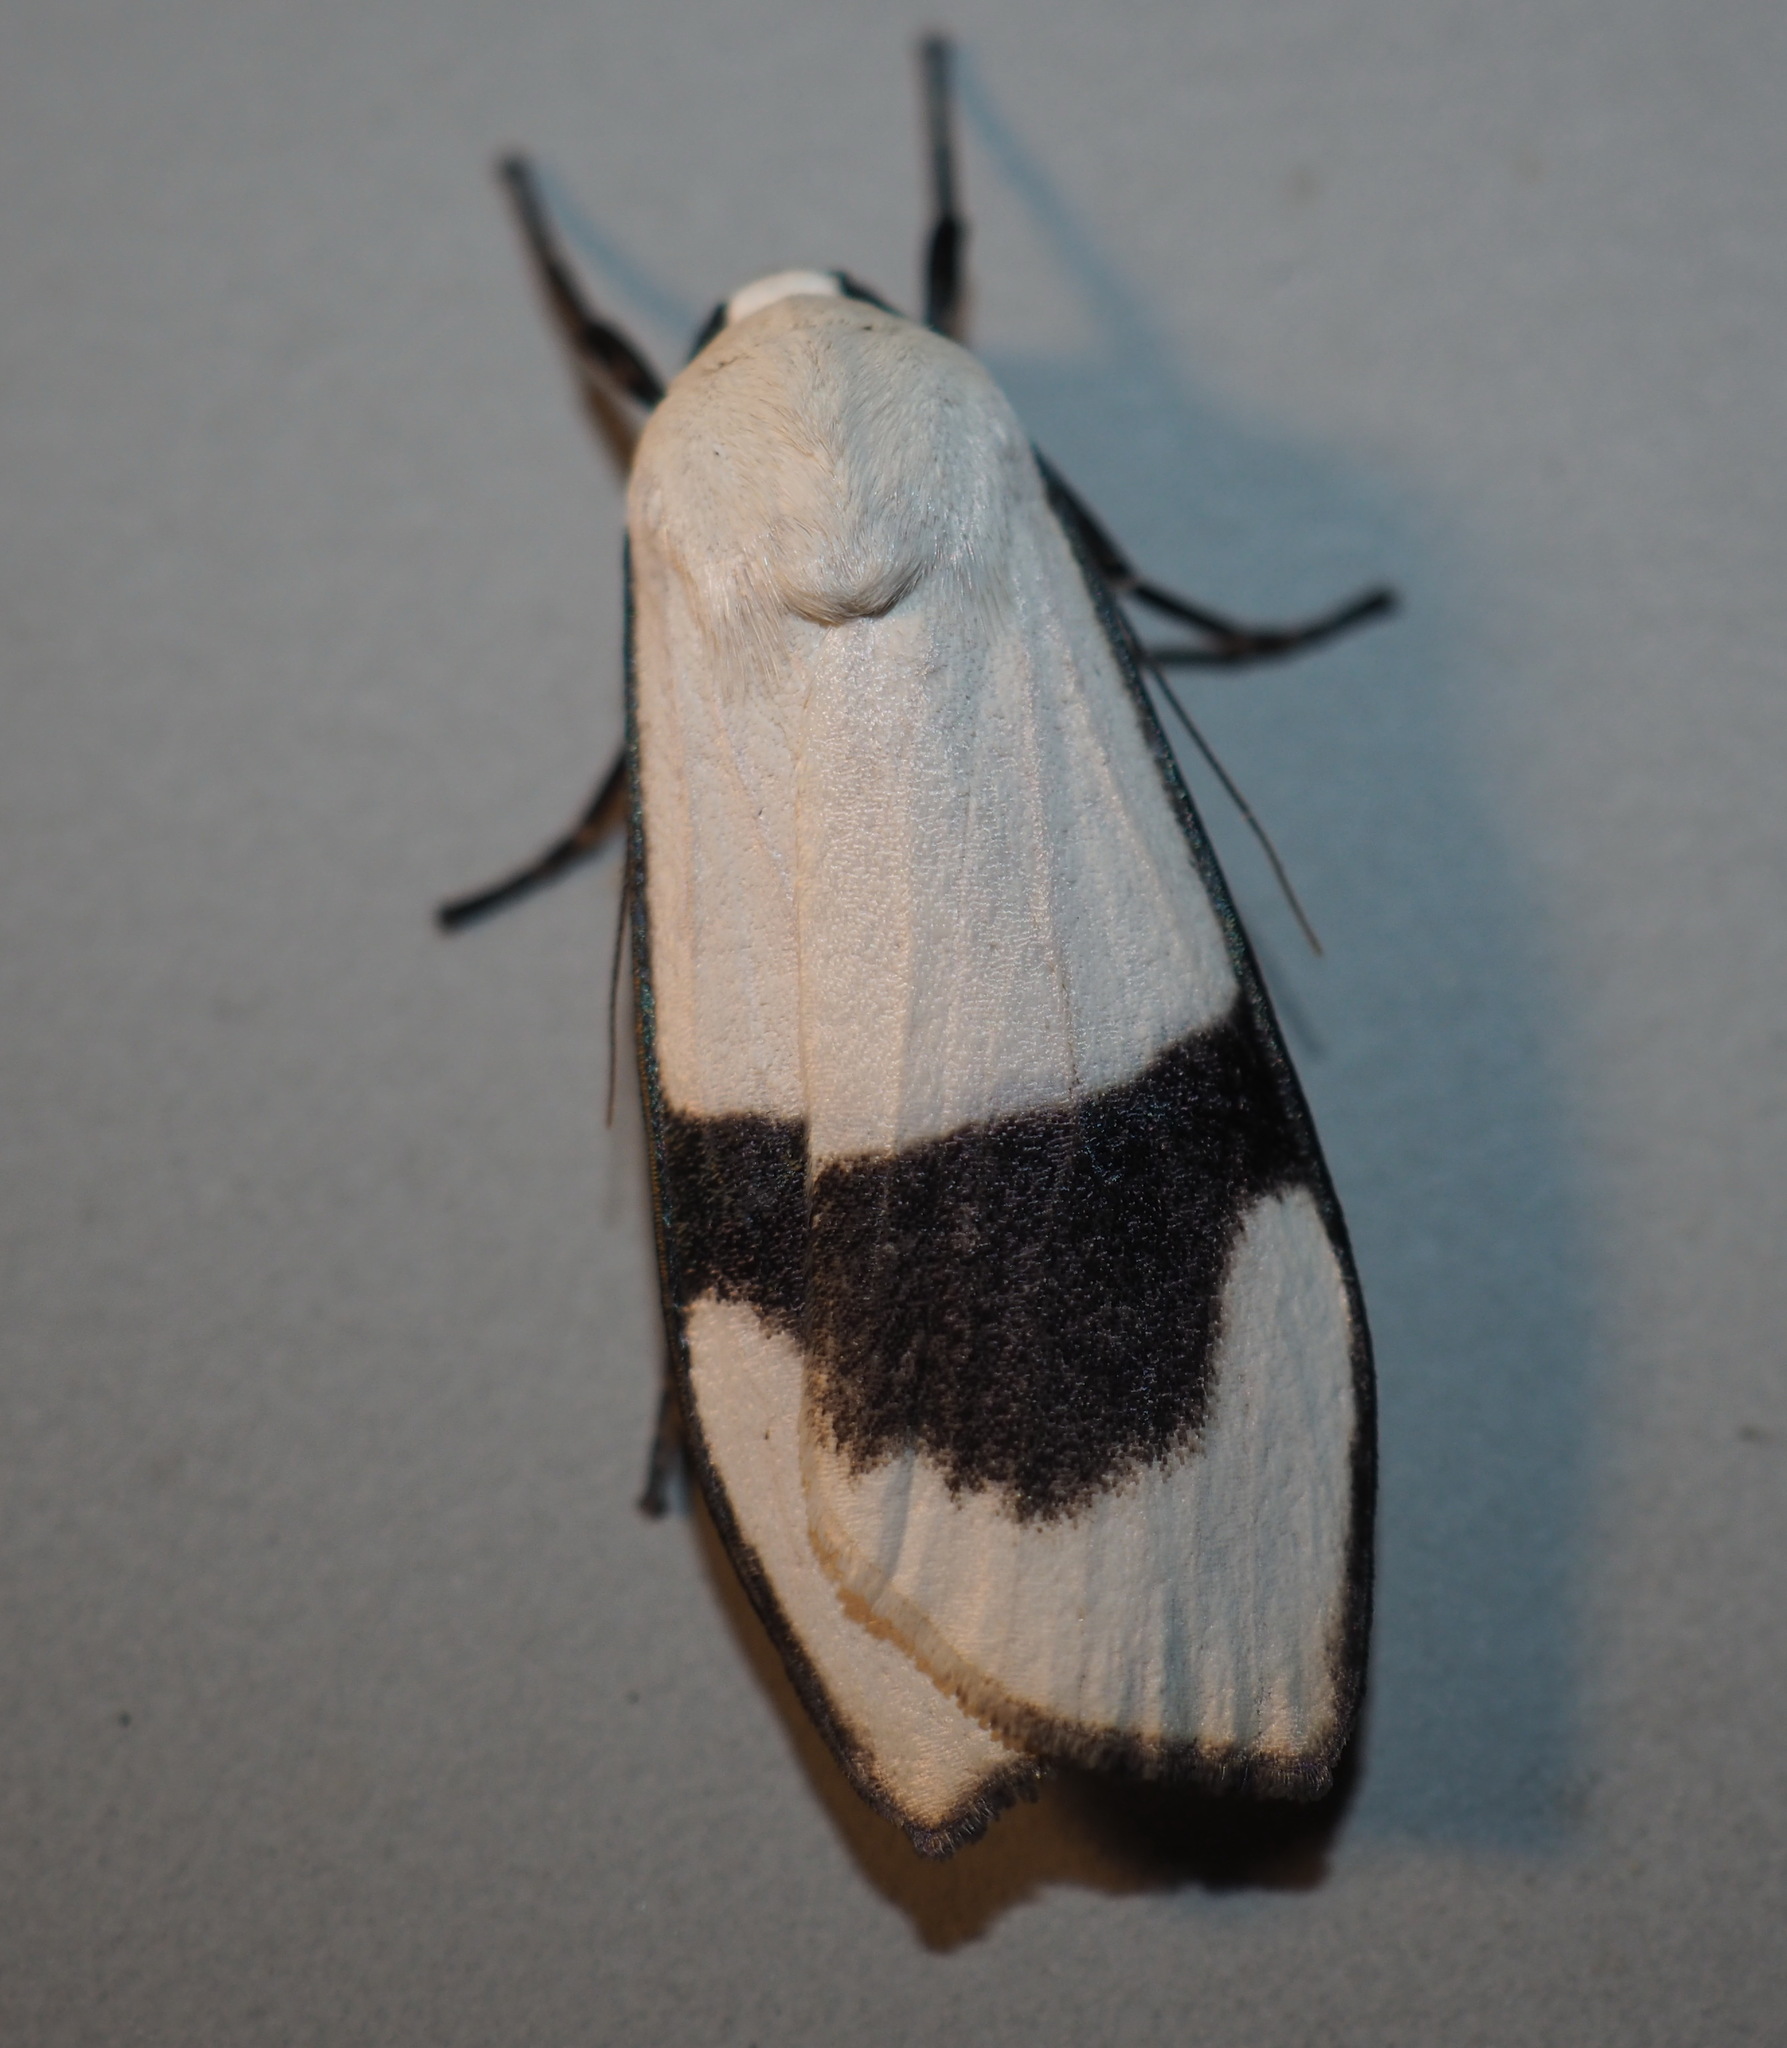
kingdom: Animalia
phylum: Arthropoda
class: Insecta
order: Lepidoptera
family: Erebidae
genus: Vamuna
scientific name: Vamuna alboluteola
